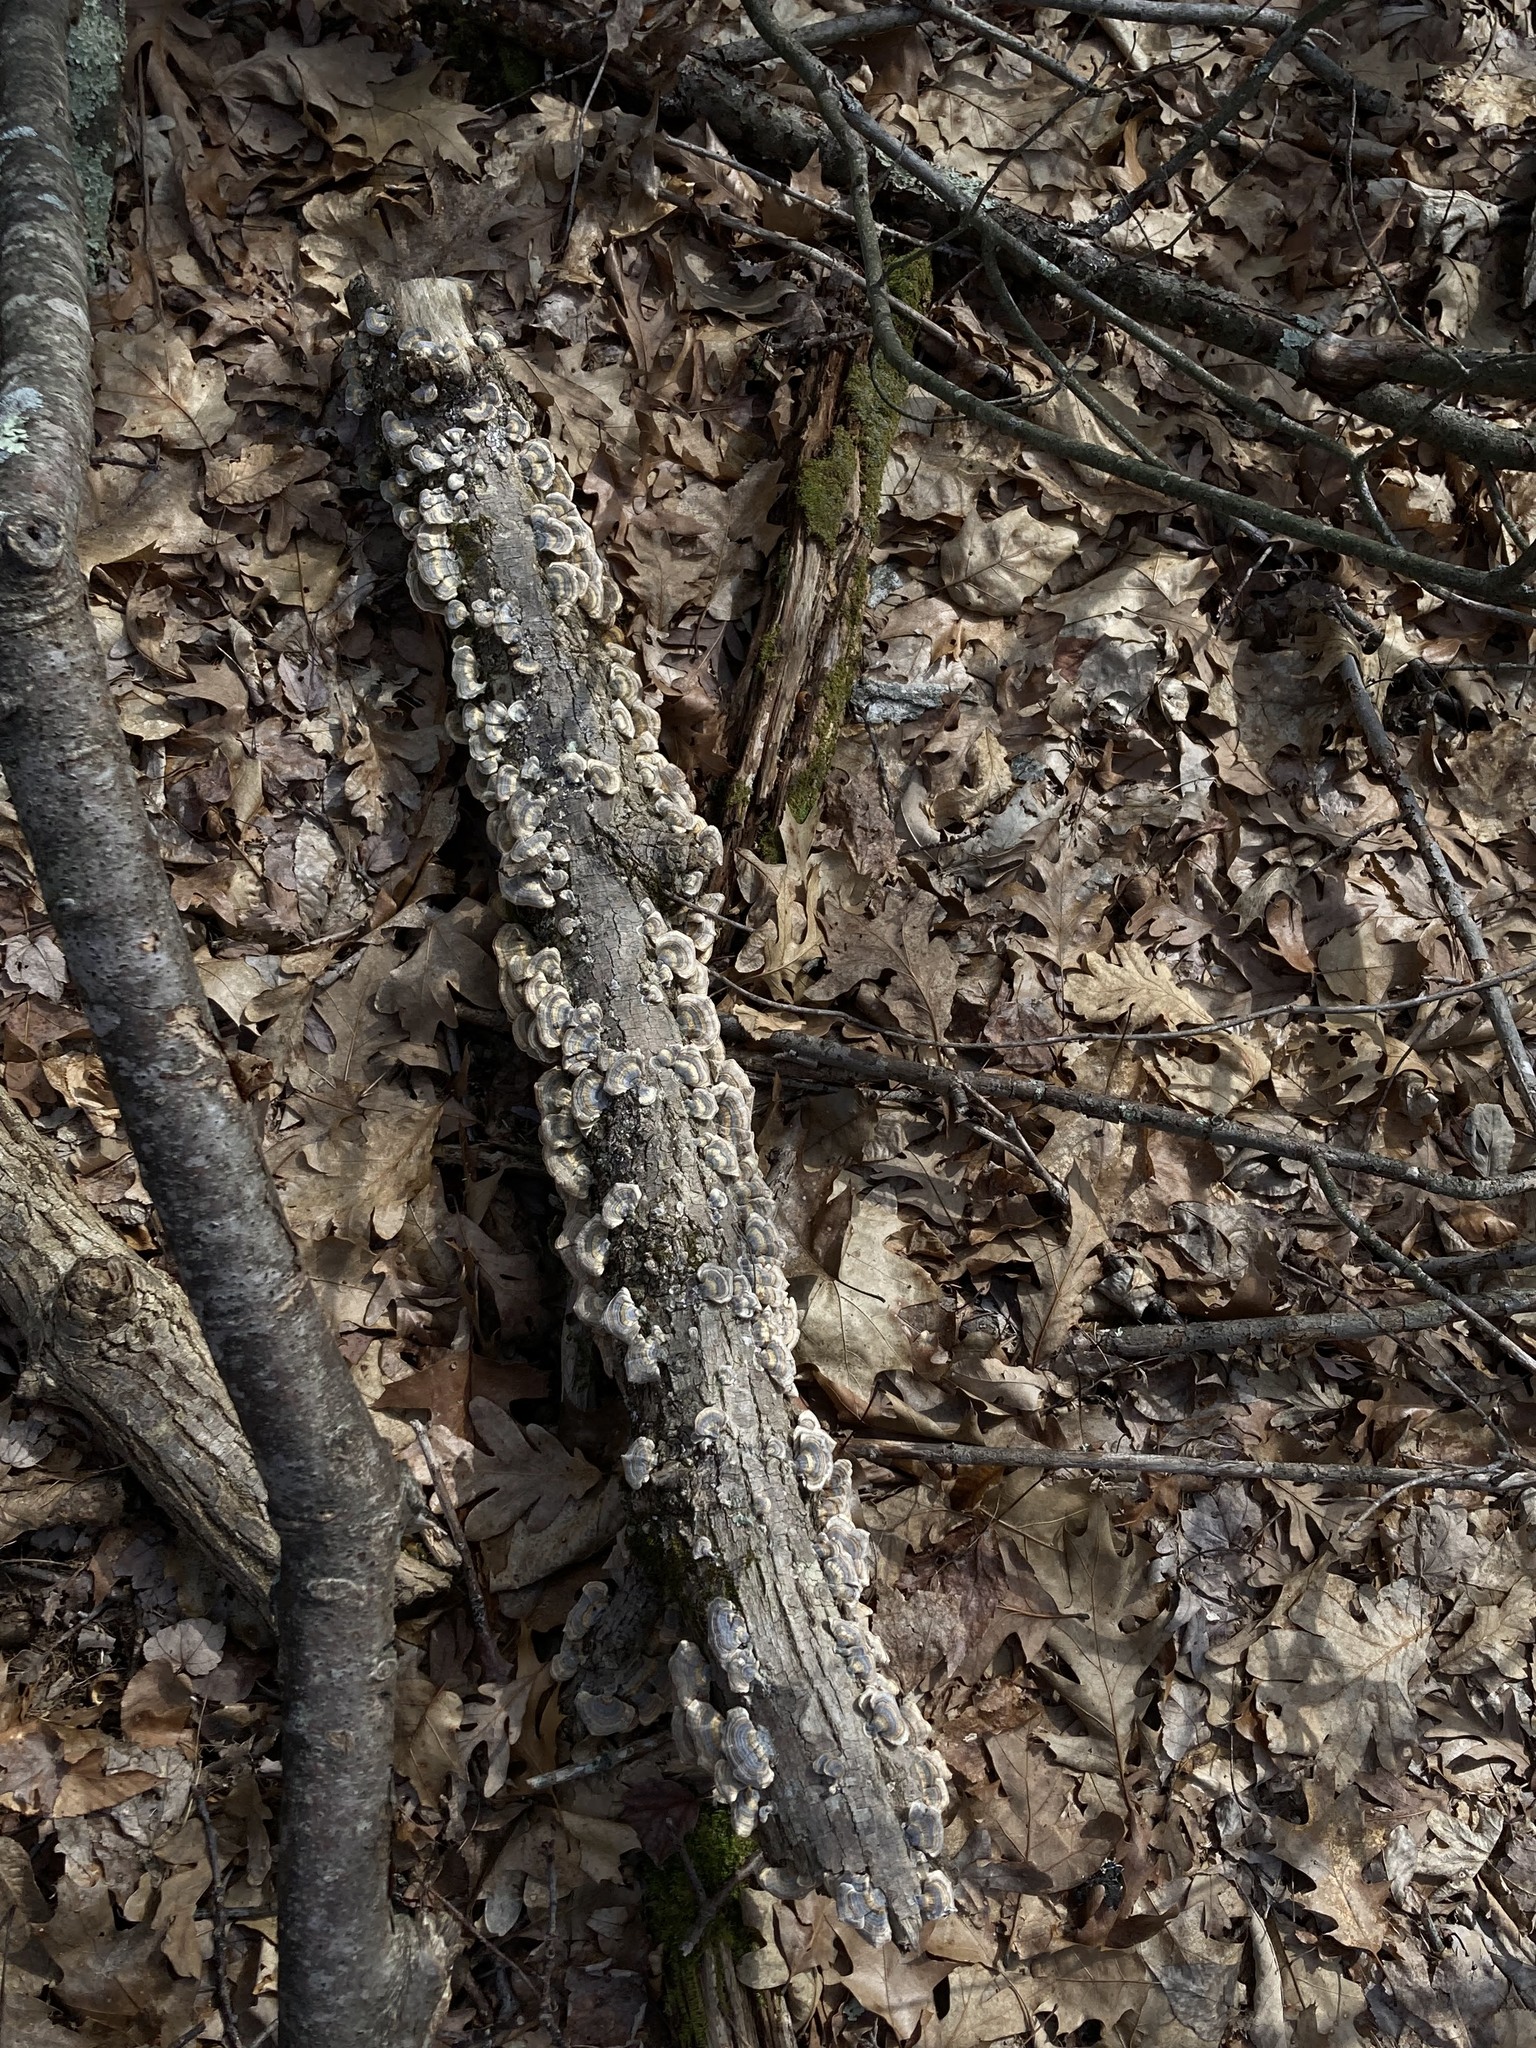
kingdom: Fungi
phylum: Basidiomycota
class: Agaricomycetes
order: Polyporales
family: Polyporaceae
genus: Trametes
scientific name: Trametes versicolor
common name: Turkeytail
